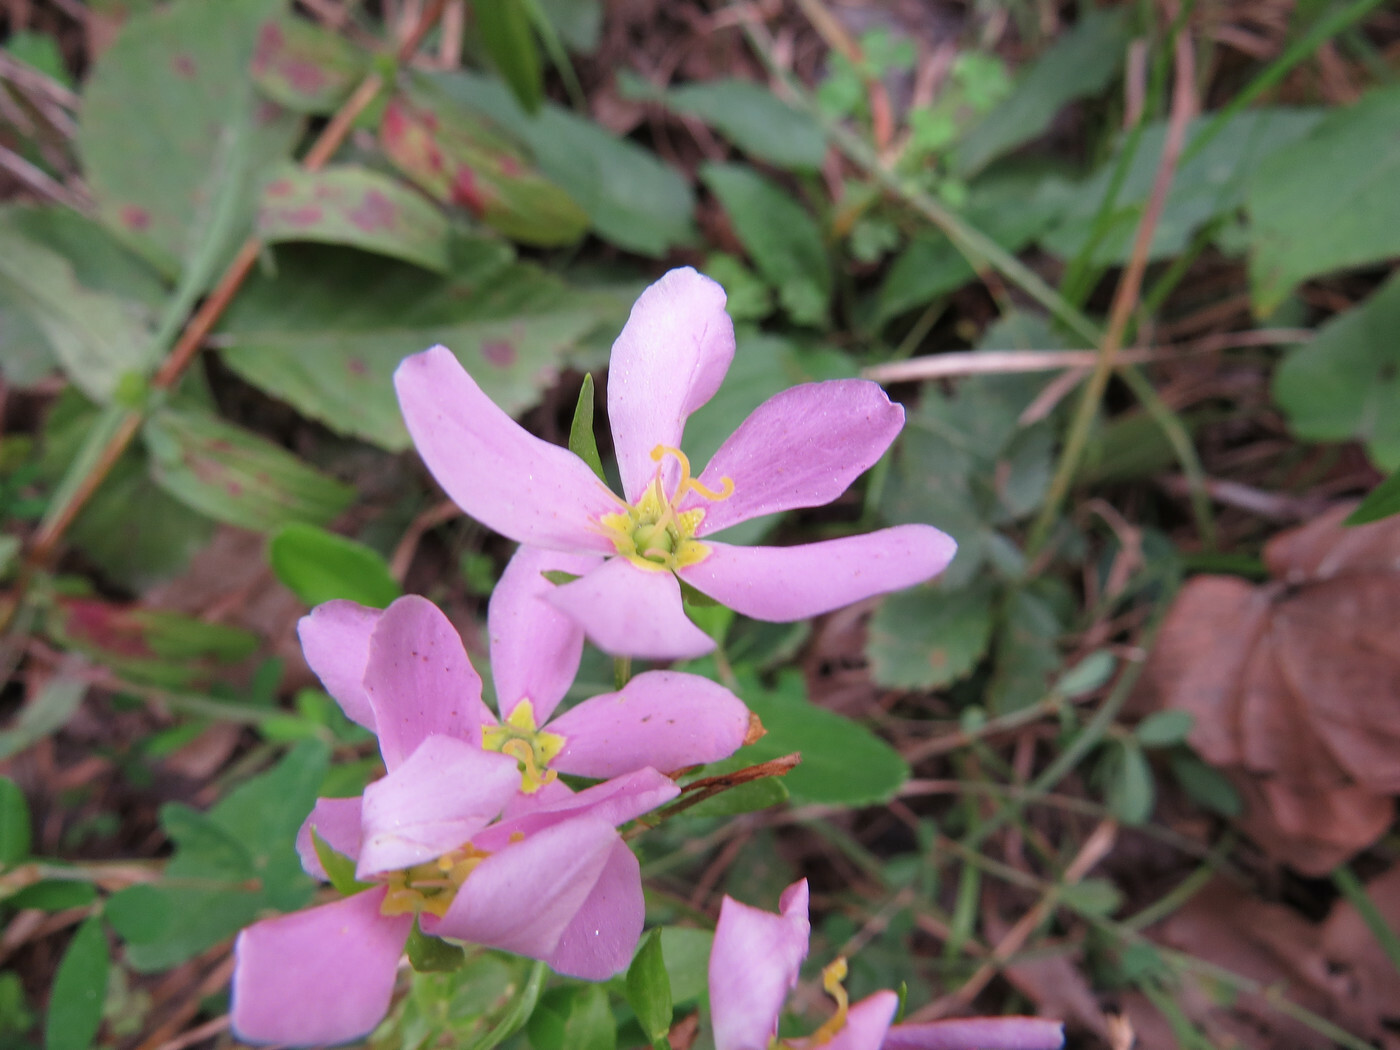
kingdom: Plantae
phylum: Tracheophyta
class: Magnoliopsida
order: Gentianales
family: Gentianaceae
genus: Sabatia
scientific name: Sabatia angularis
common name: Rose-pink
